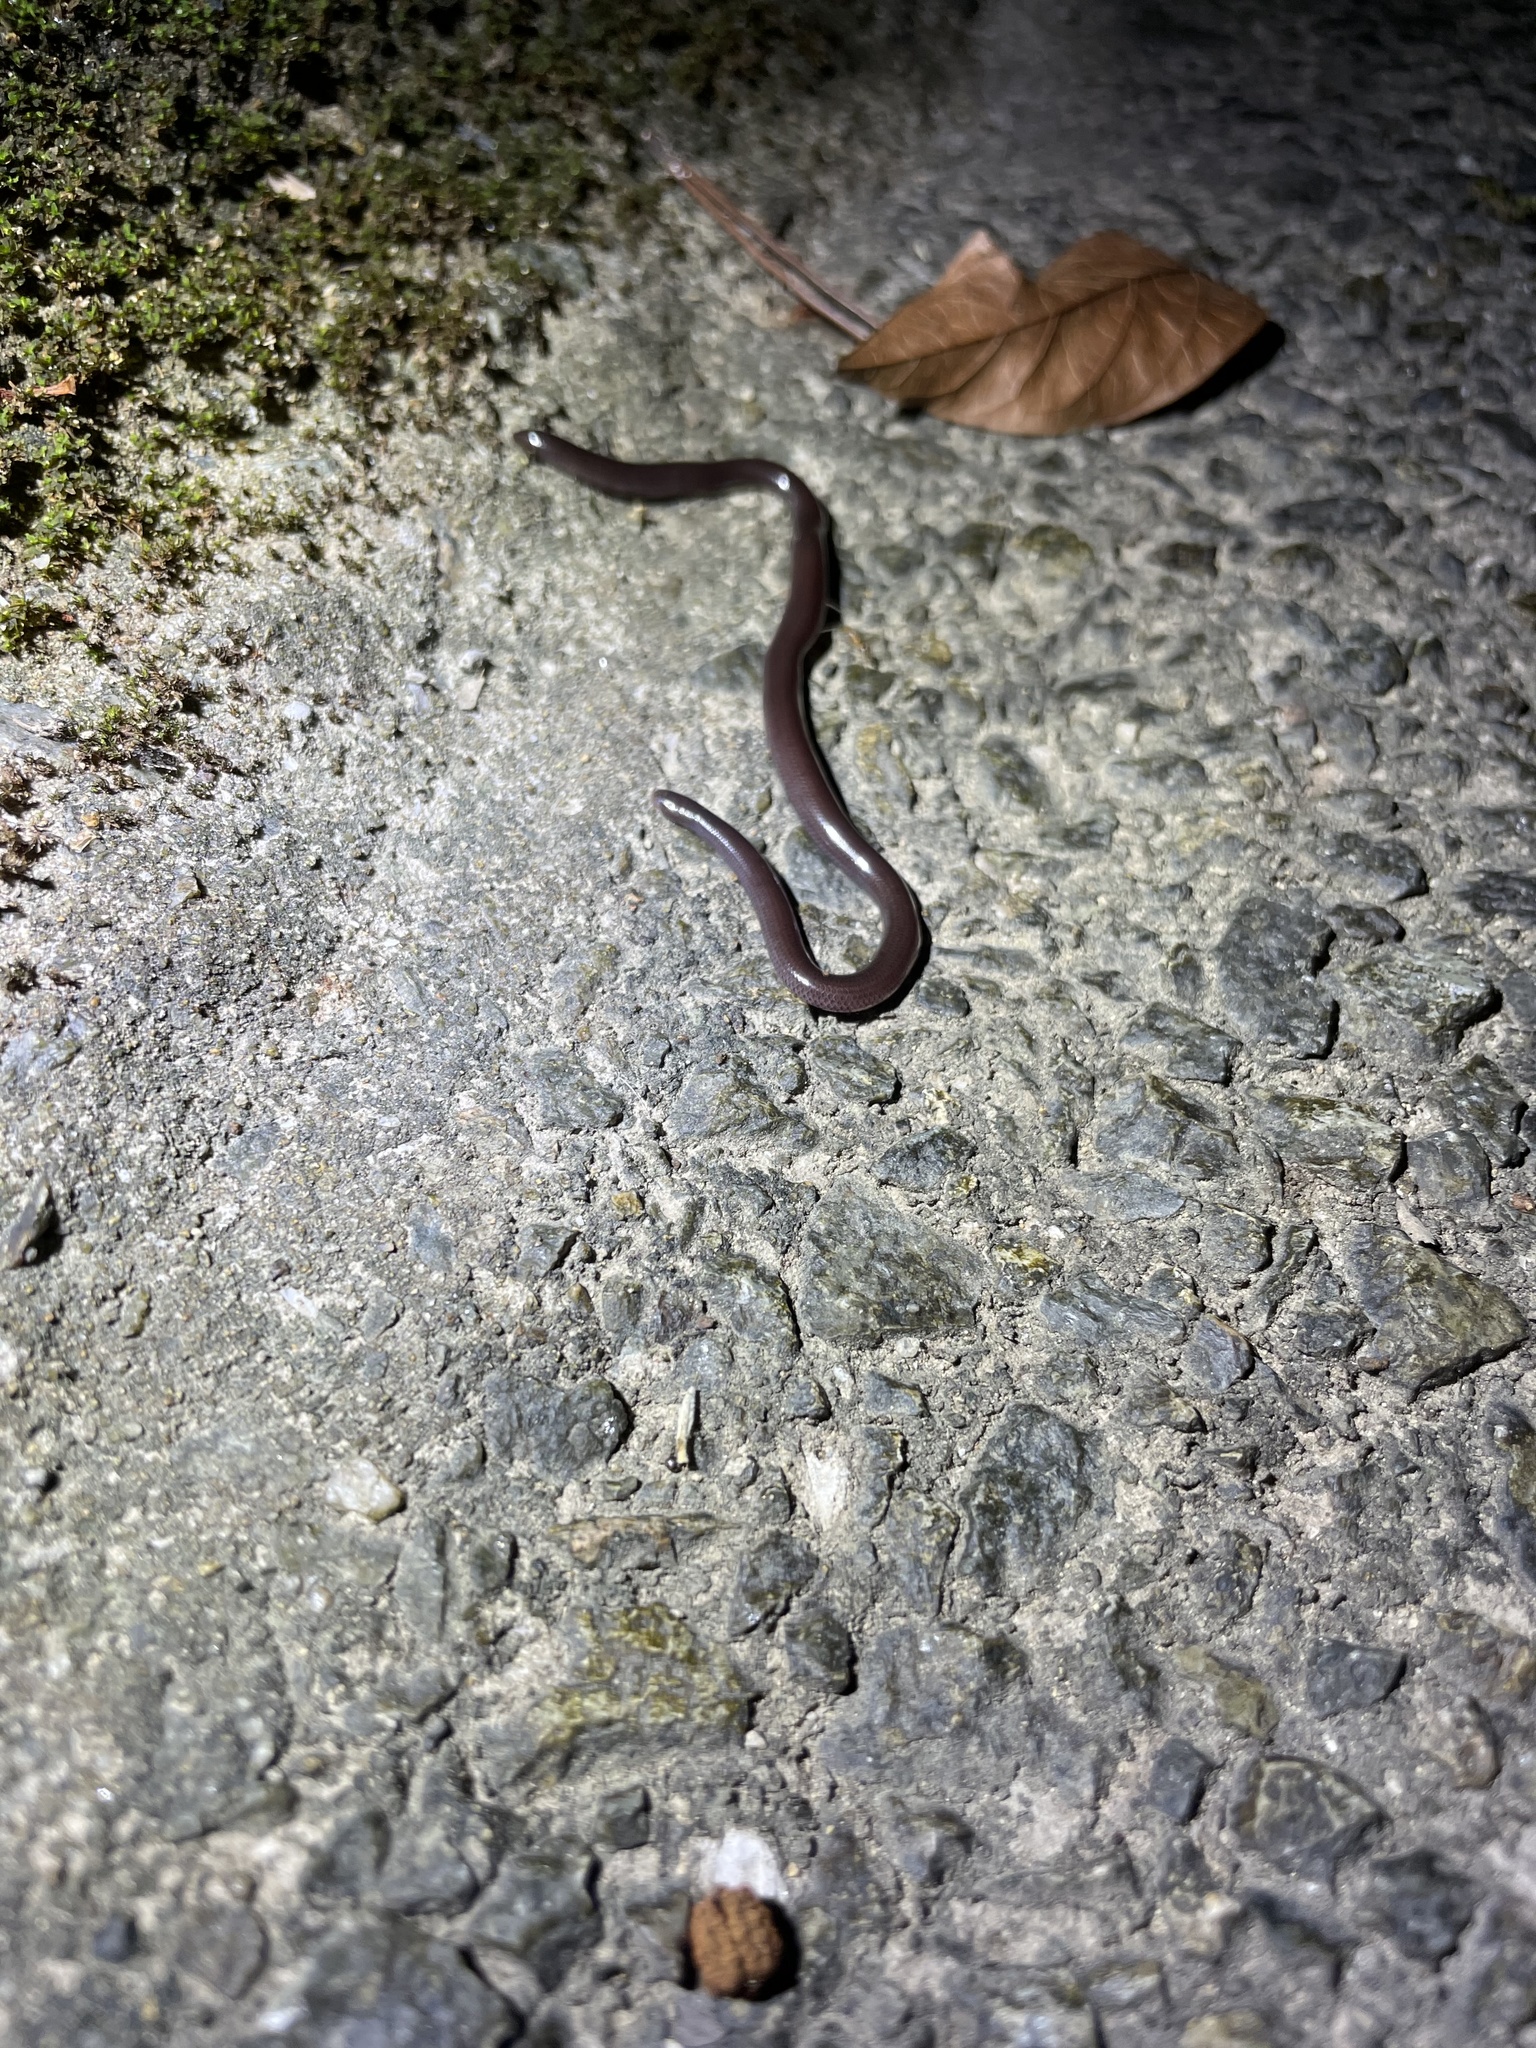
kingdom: Animalia
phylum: Chordata
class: Squamata
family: Typhlopidae
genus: Indotyphlops
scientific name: Indotyphlops braminus
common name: Brahminy blindsnake
